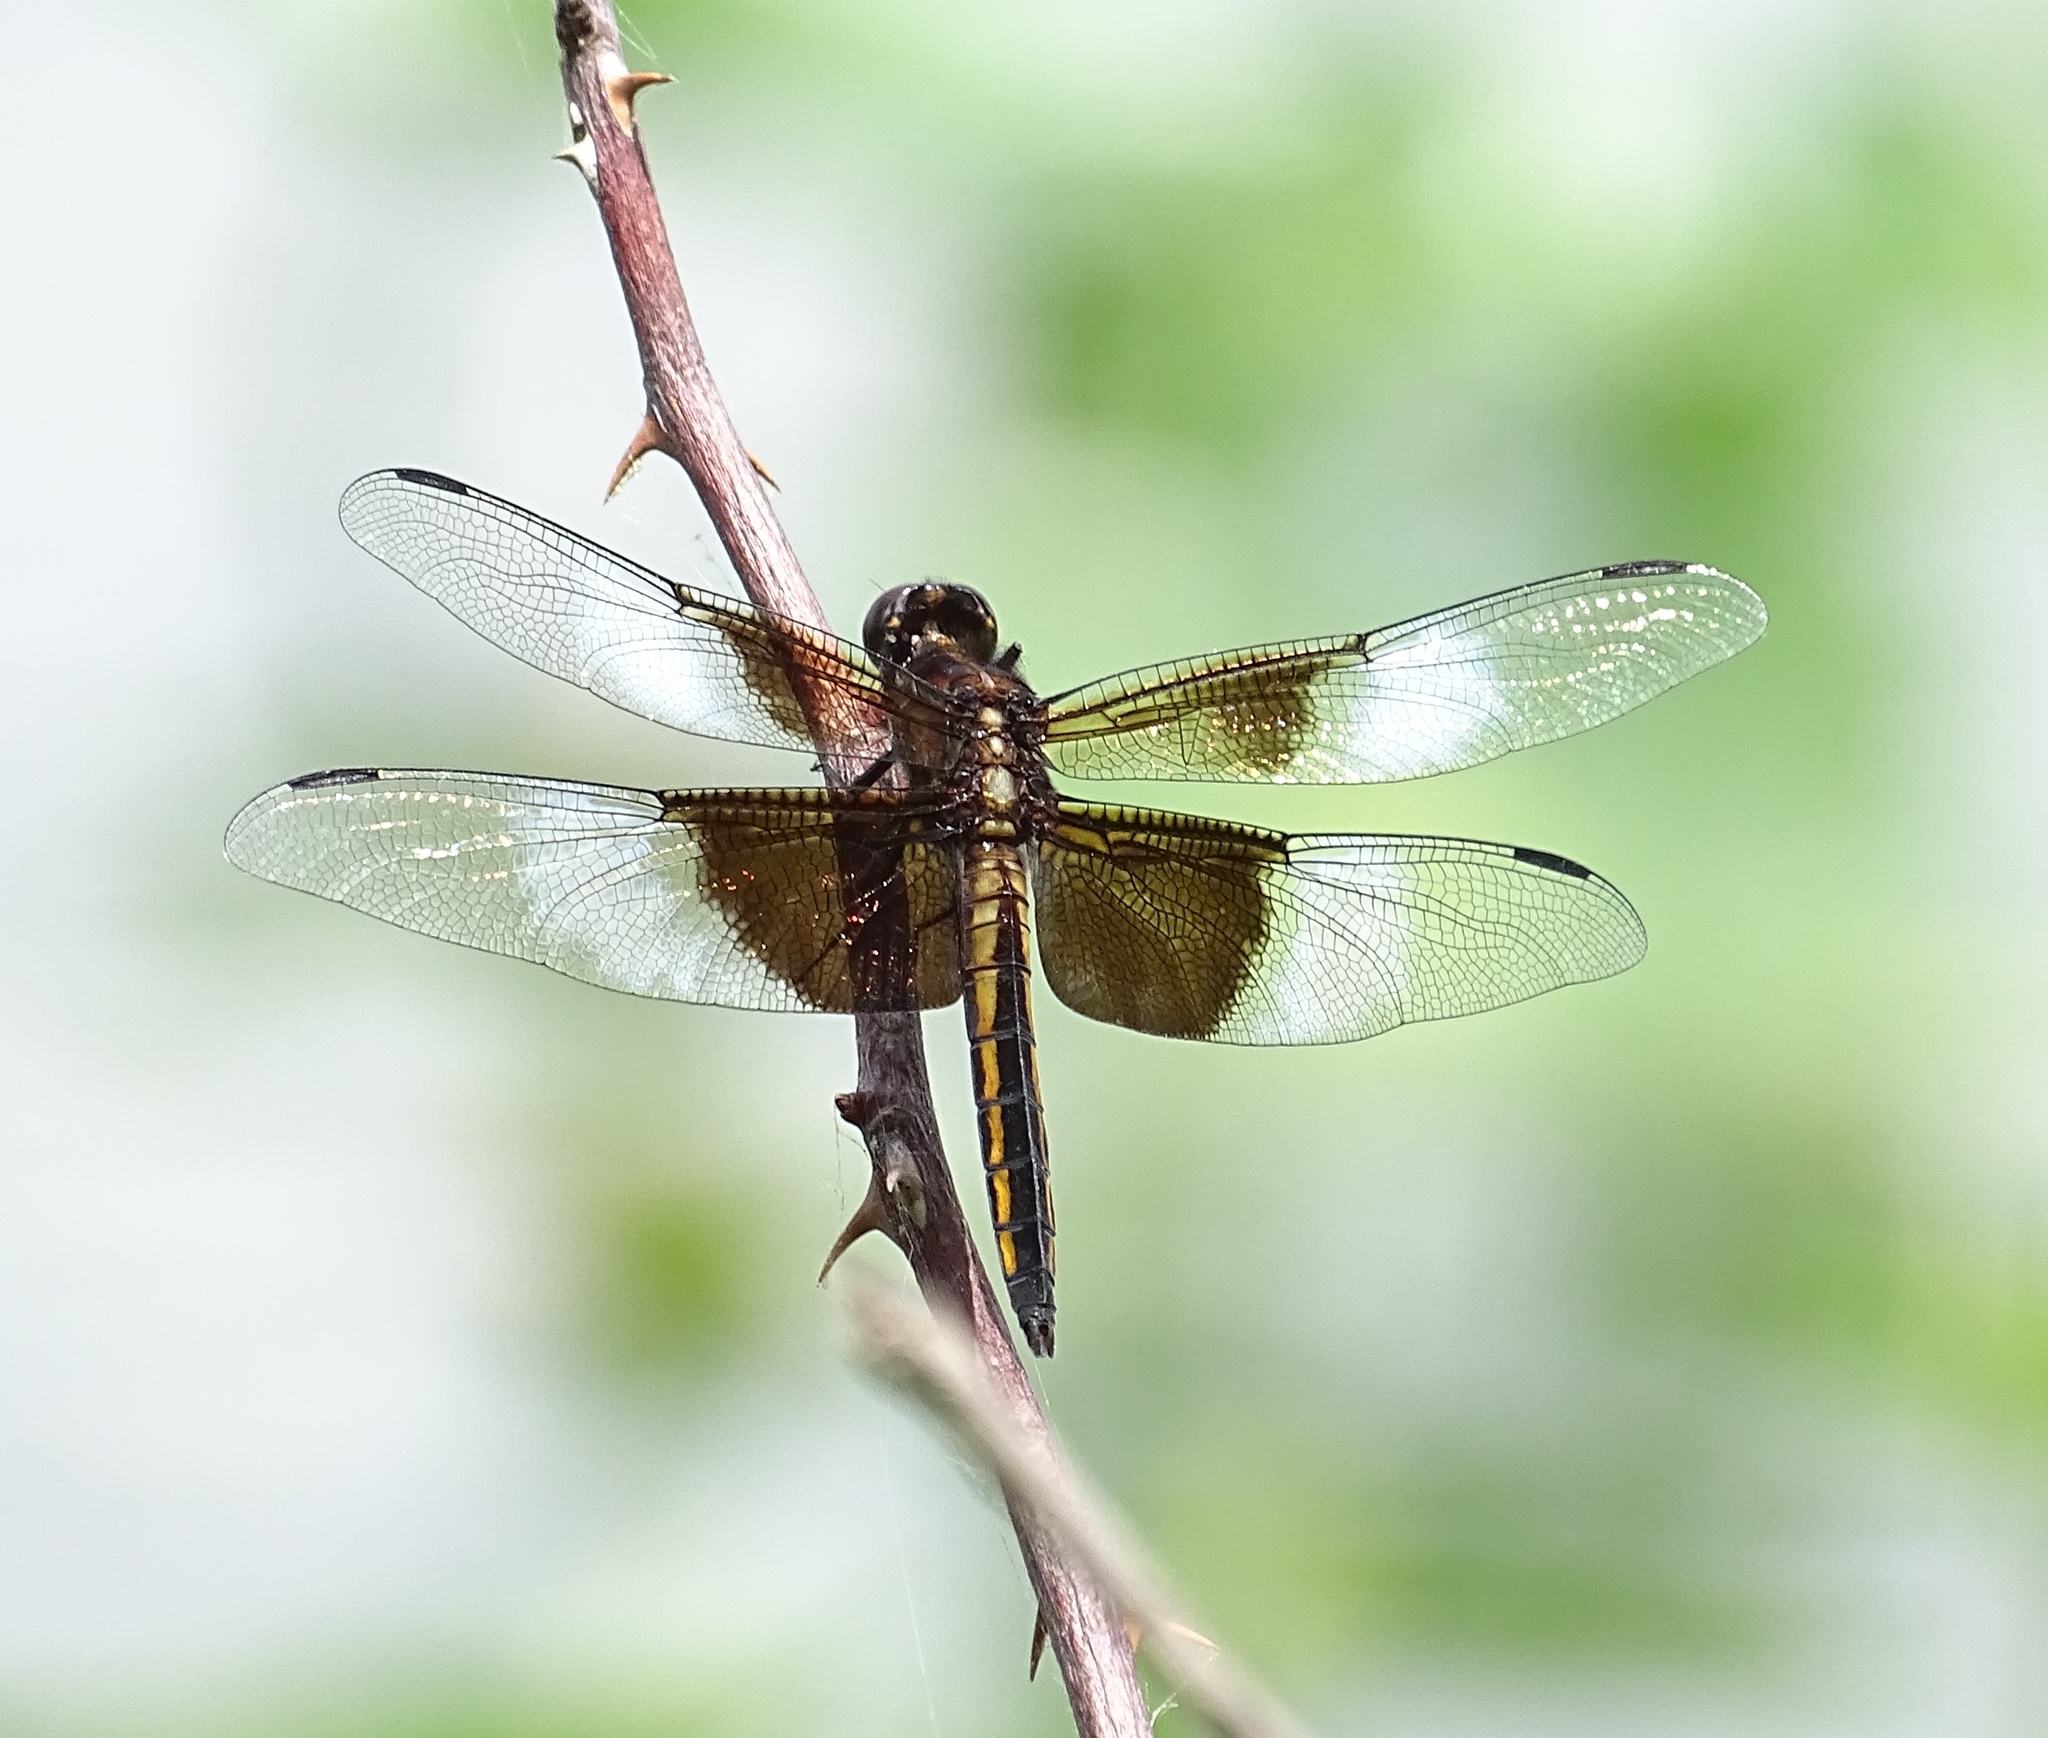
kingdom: Animalia
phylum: Arthropoda
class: Insecta
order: Odonata
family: Libellulidae
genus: Libellula
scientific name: Libellula luctuosa
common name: Widow skimmer
